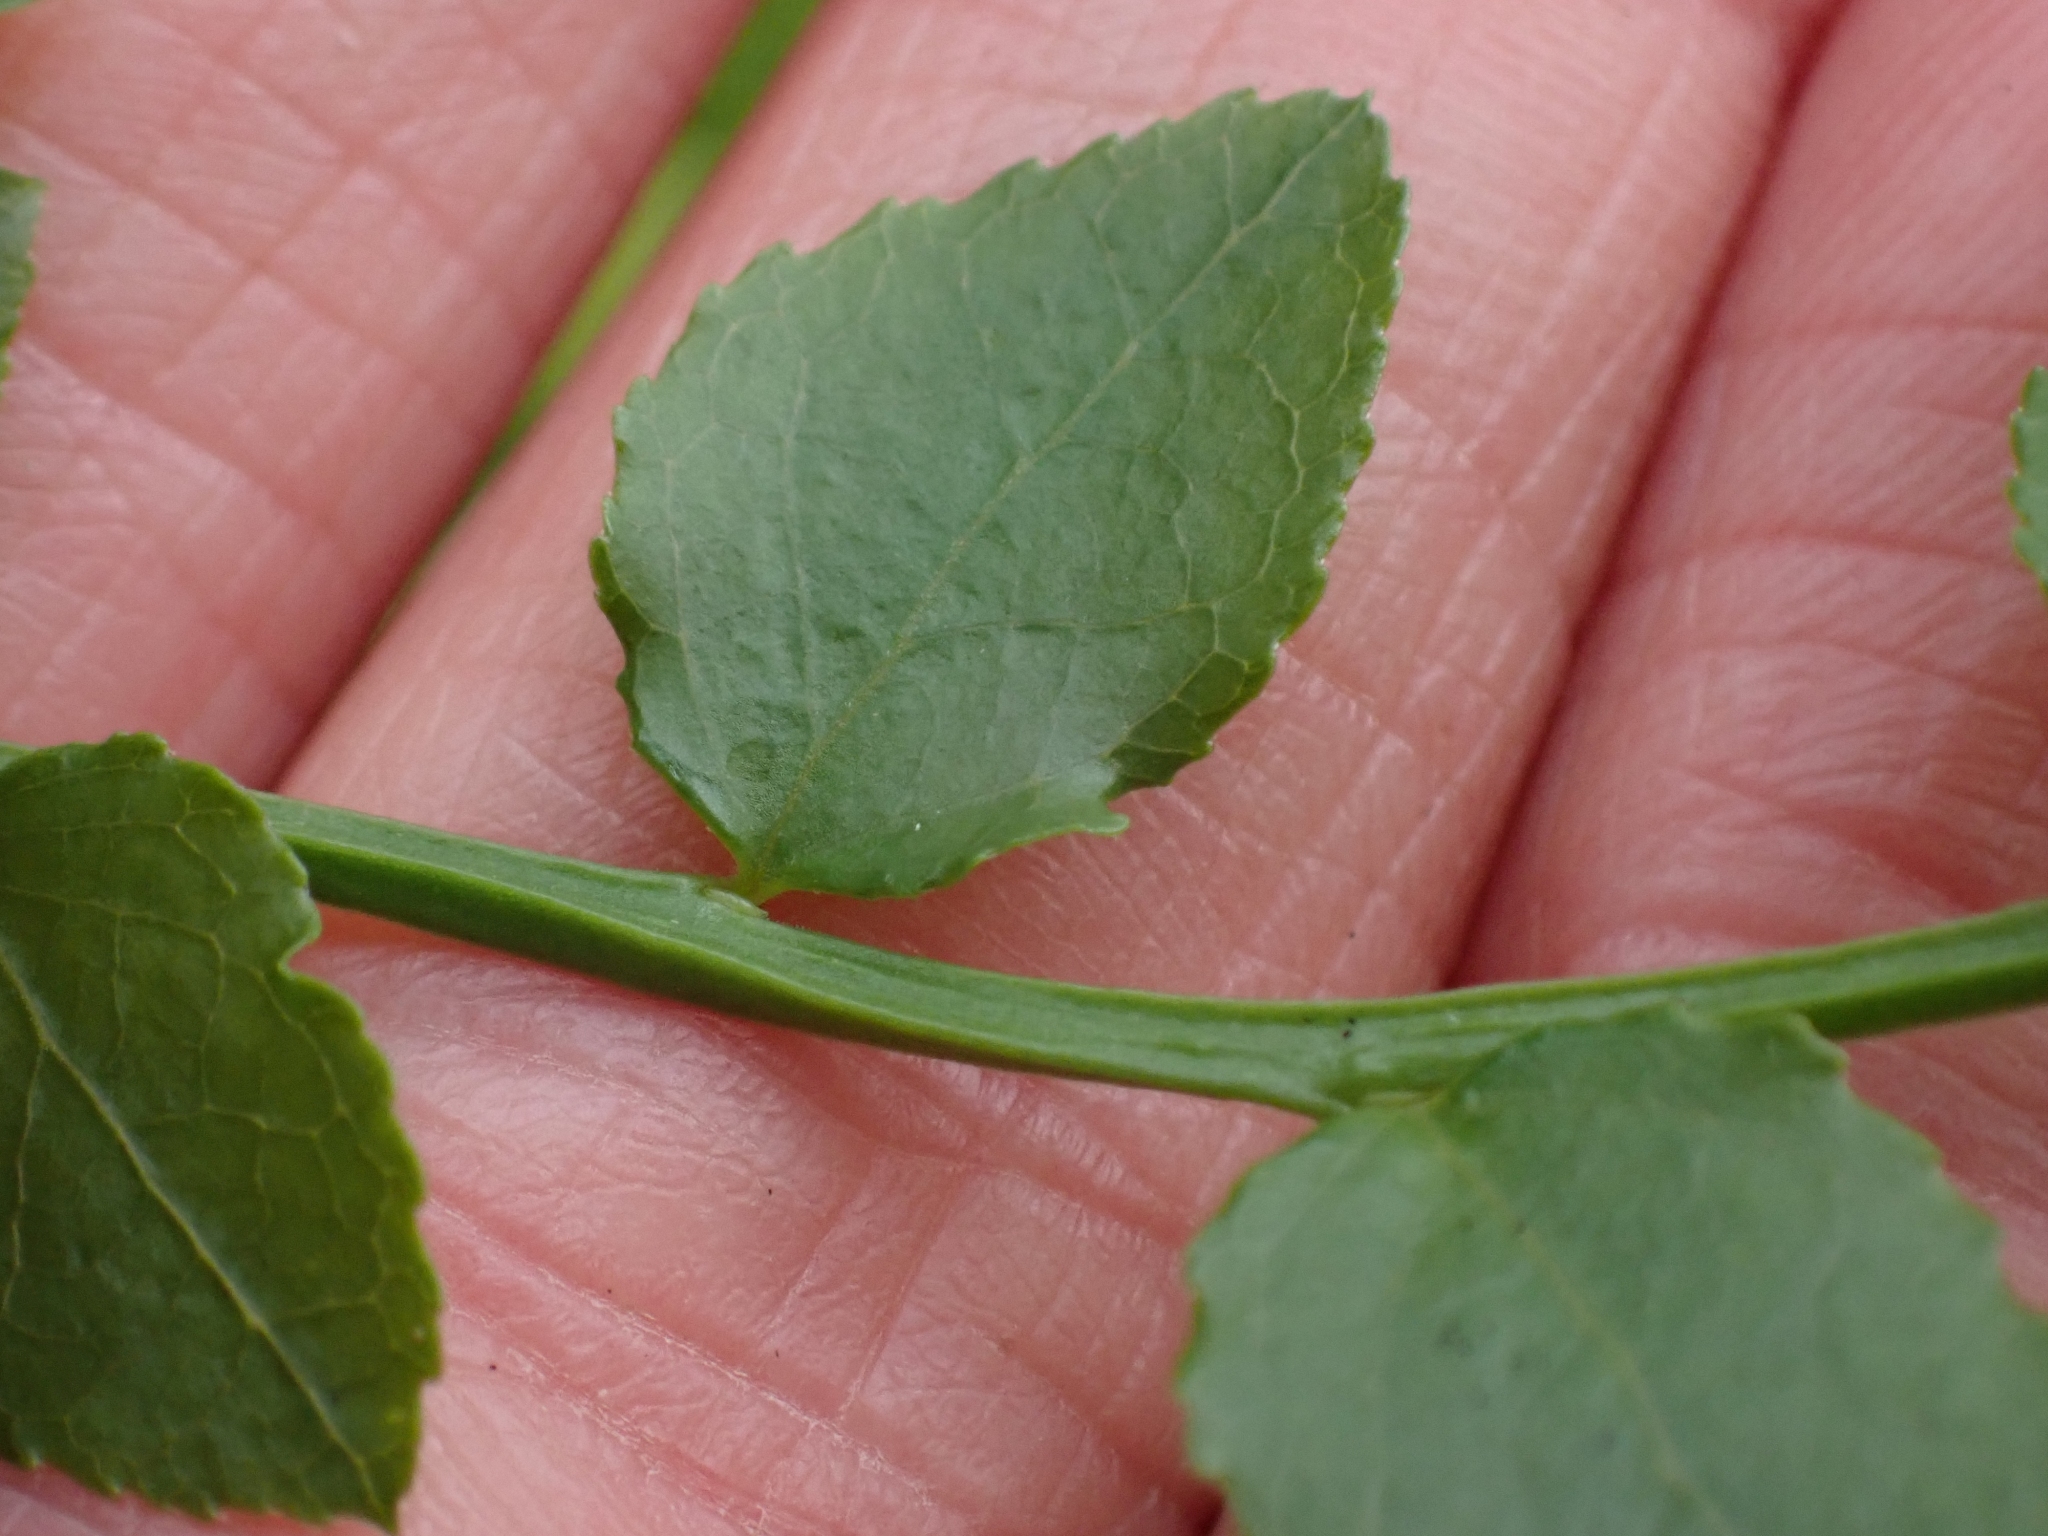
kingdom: Plantae
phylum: Tracheophyta
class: Magnoliopsida
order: Ericales
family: Ericaceae
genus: Vaccinium
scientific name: Vaccinium parvifolium
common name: Red-huckleberry
